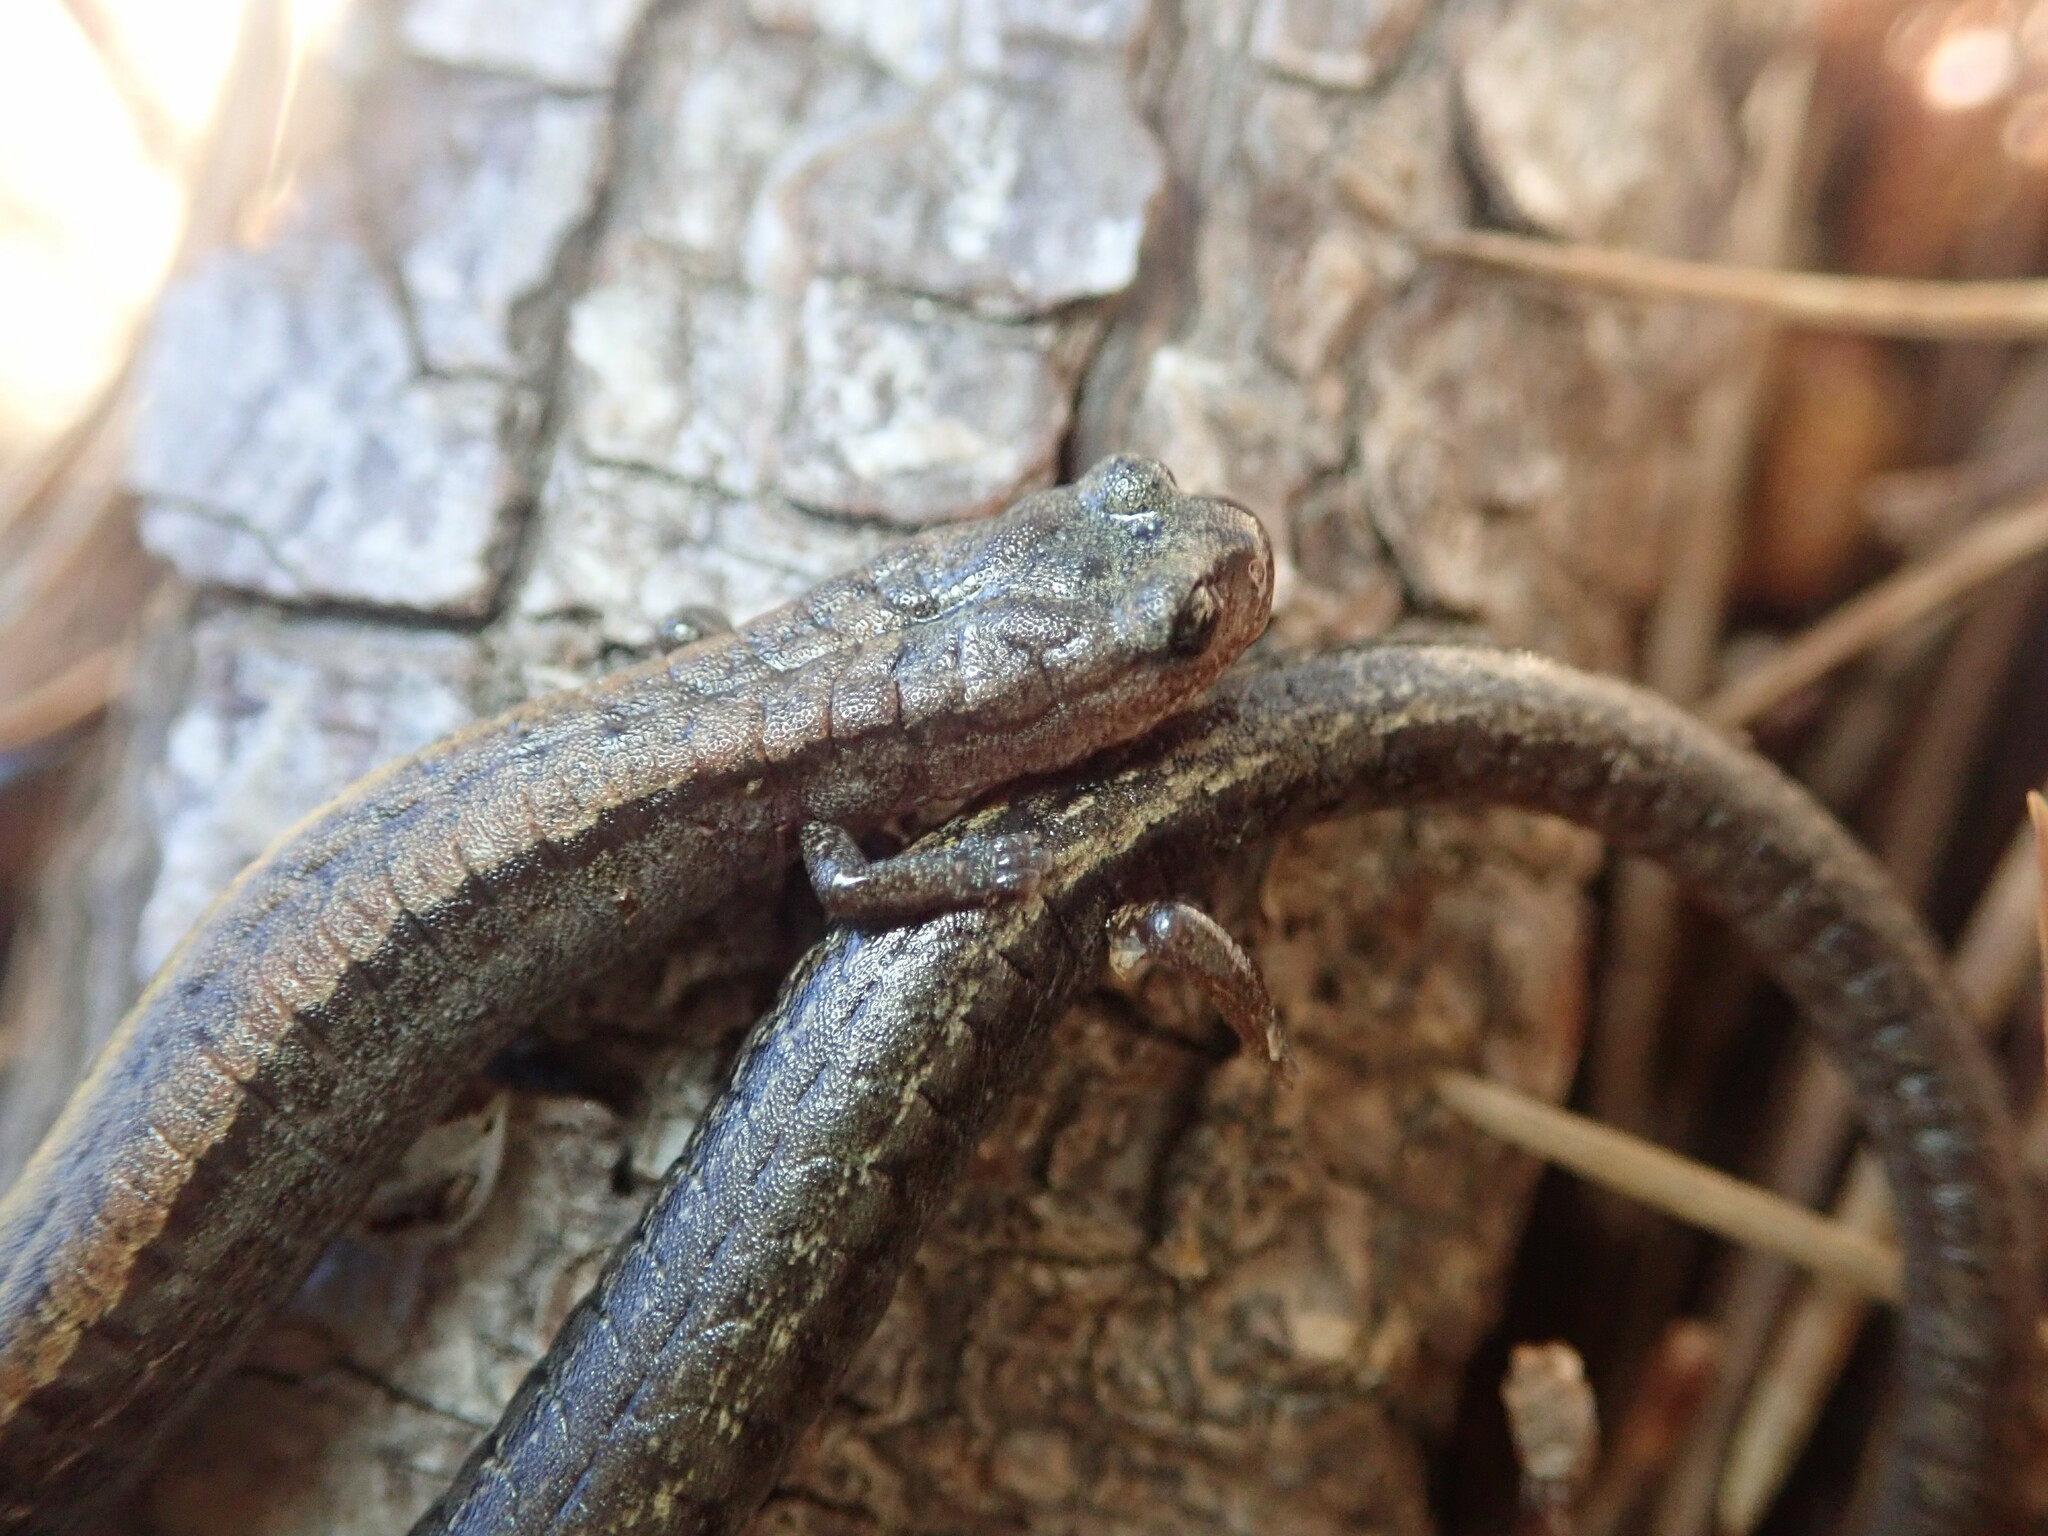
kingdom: Animalia
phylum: Chordata
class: Amphibia
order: Caudata
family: Plethodontidae
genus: Batrachoseps
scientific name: Batrachoseps attenuatus
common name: California slender salamander
